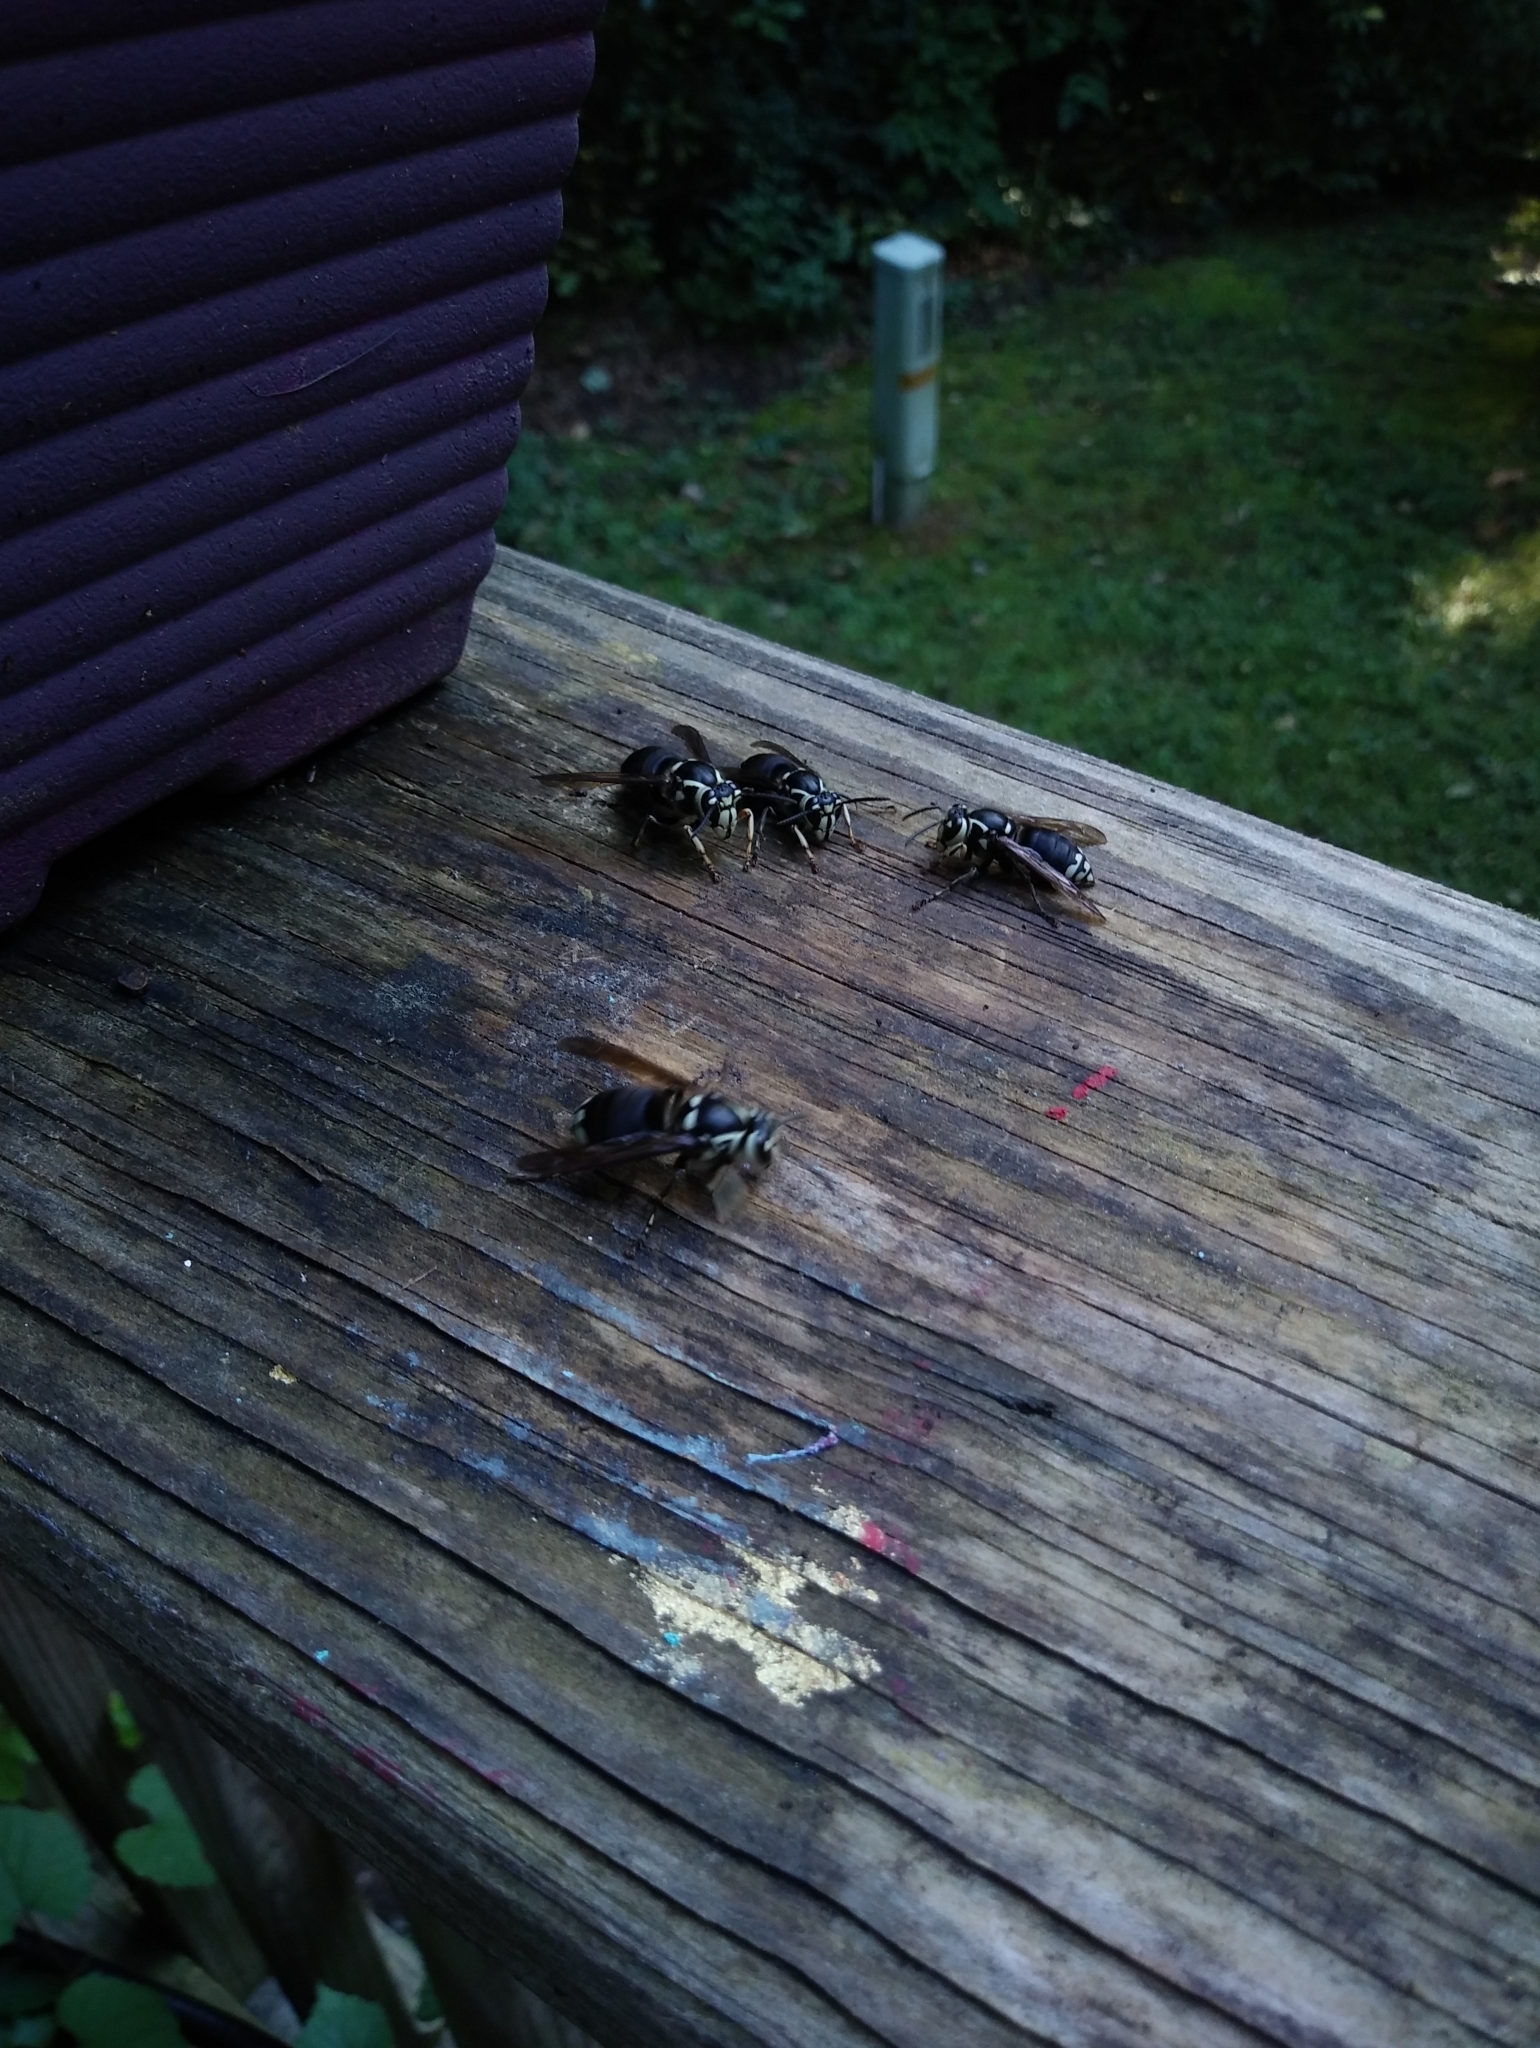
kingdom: Animalia
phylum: Arthropoda
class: Insecta
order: Hymenoptera
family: Vespidae
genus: Dolichovespula
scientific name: Dolichovespula maculata
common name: Bald-faced hornet
